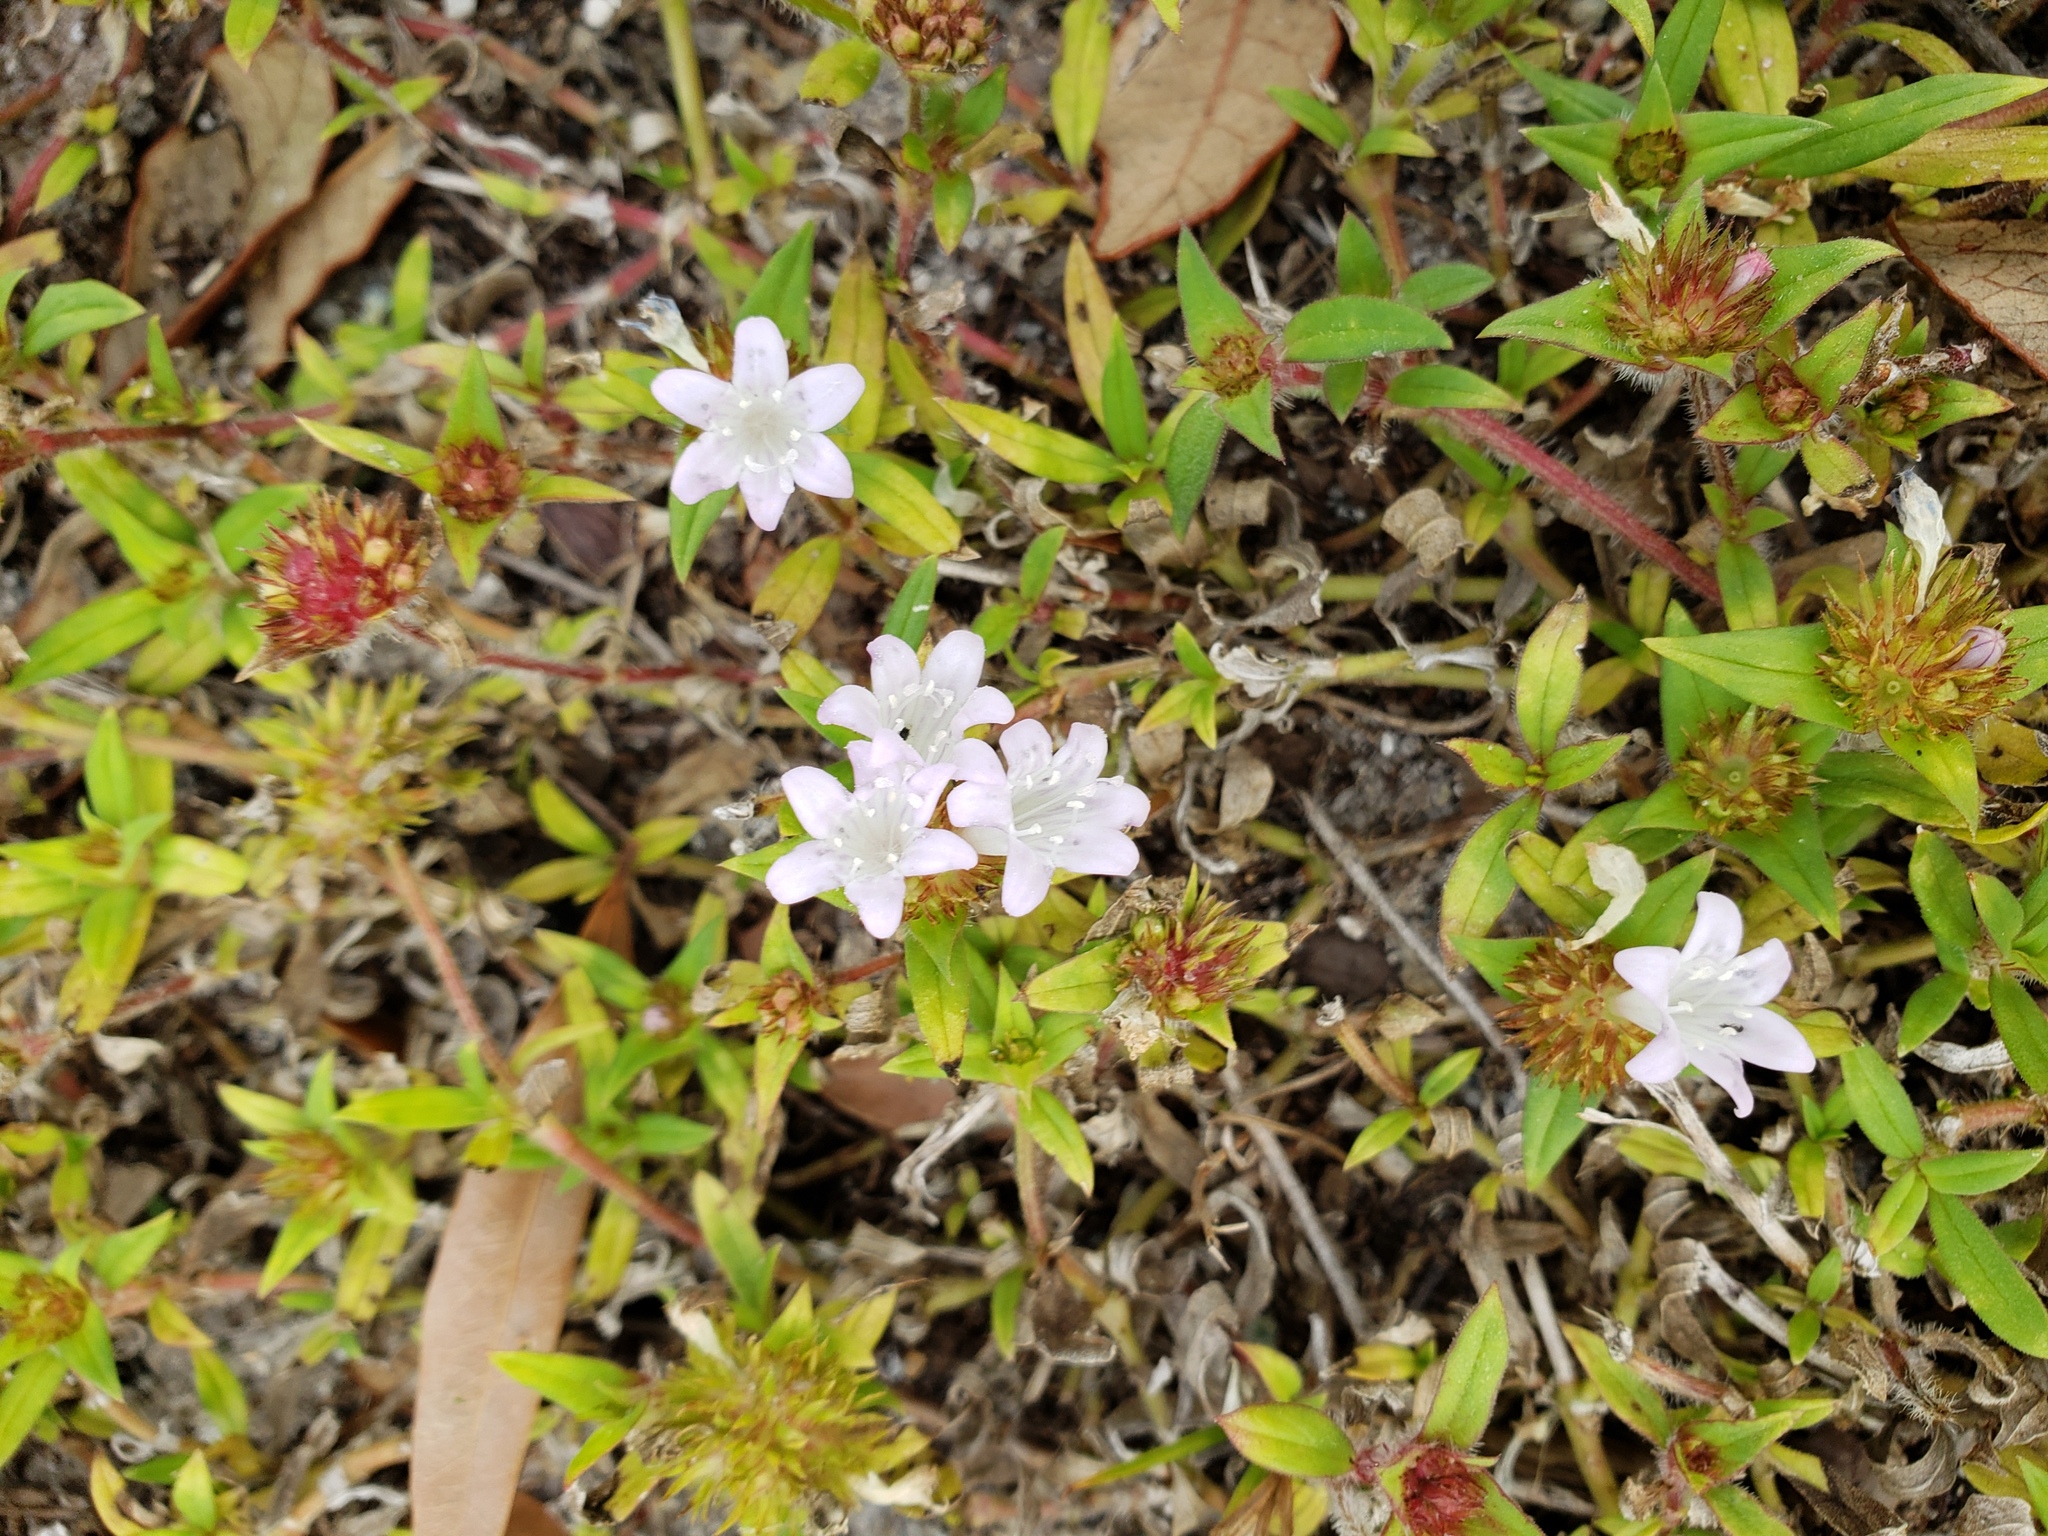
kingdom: Plantae
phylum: Tracheophyta
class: Magnoliopsida
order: Gentianales
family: Rubiaceae
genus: Richardia
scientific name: Richardia grandiflora
